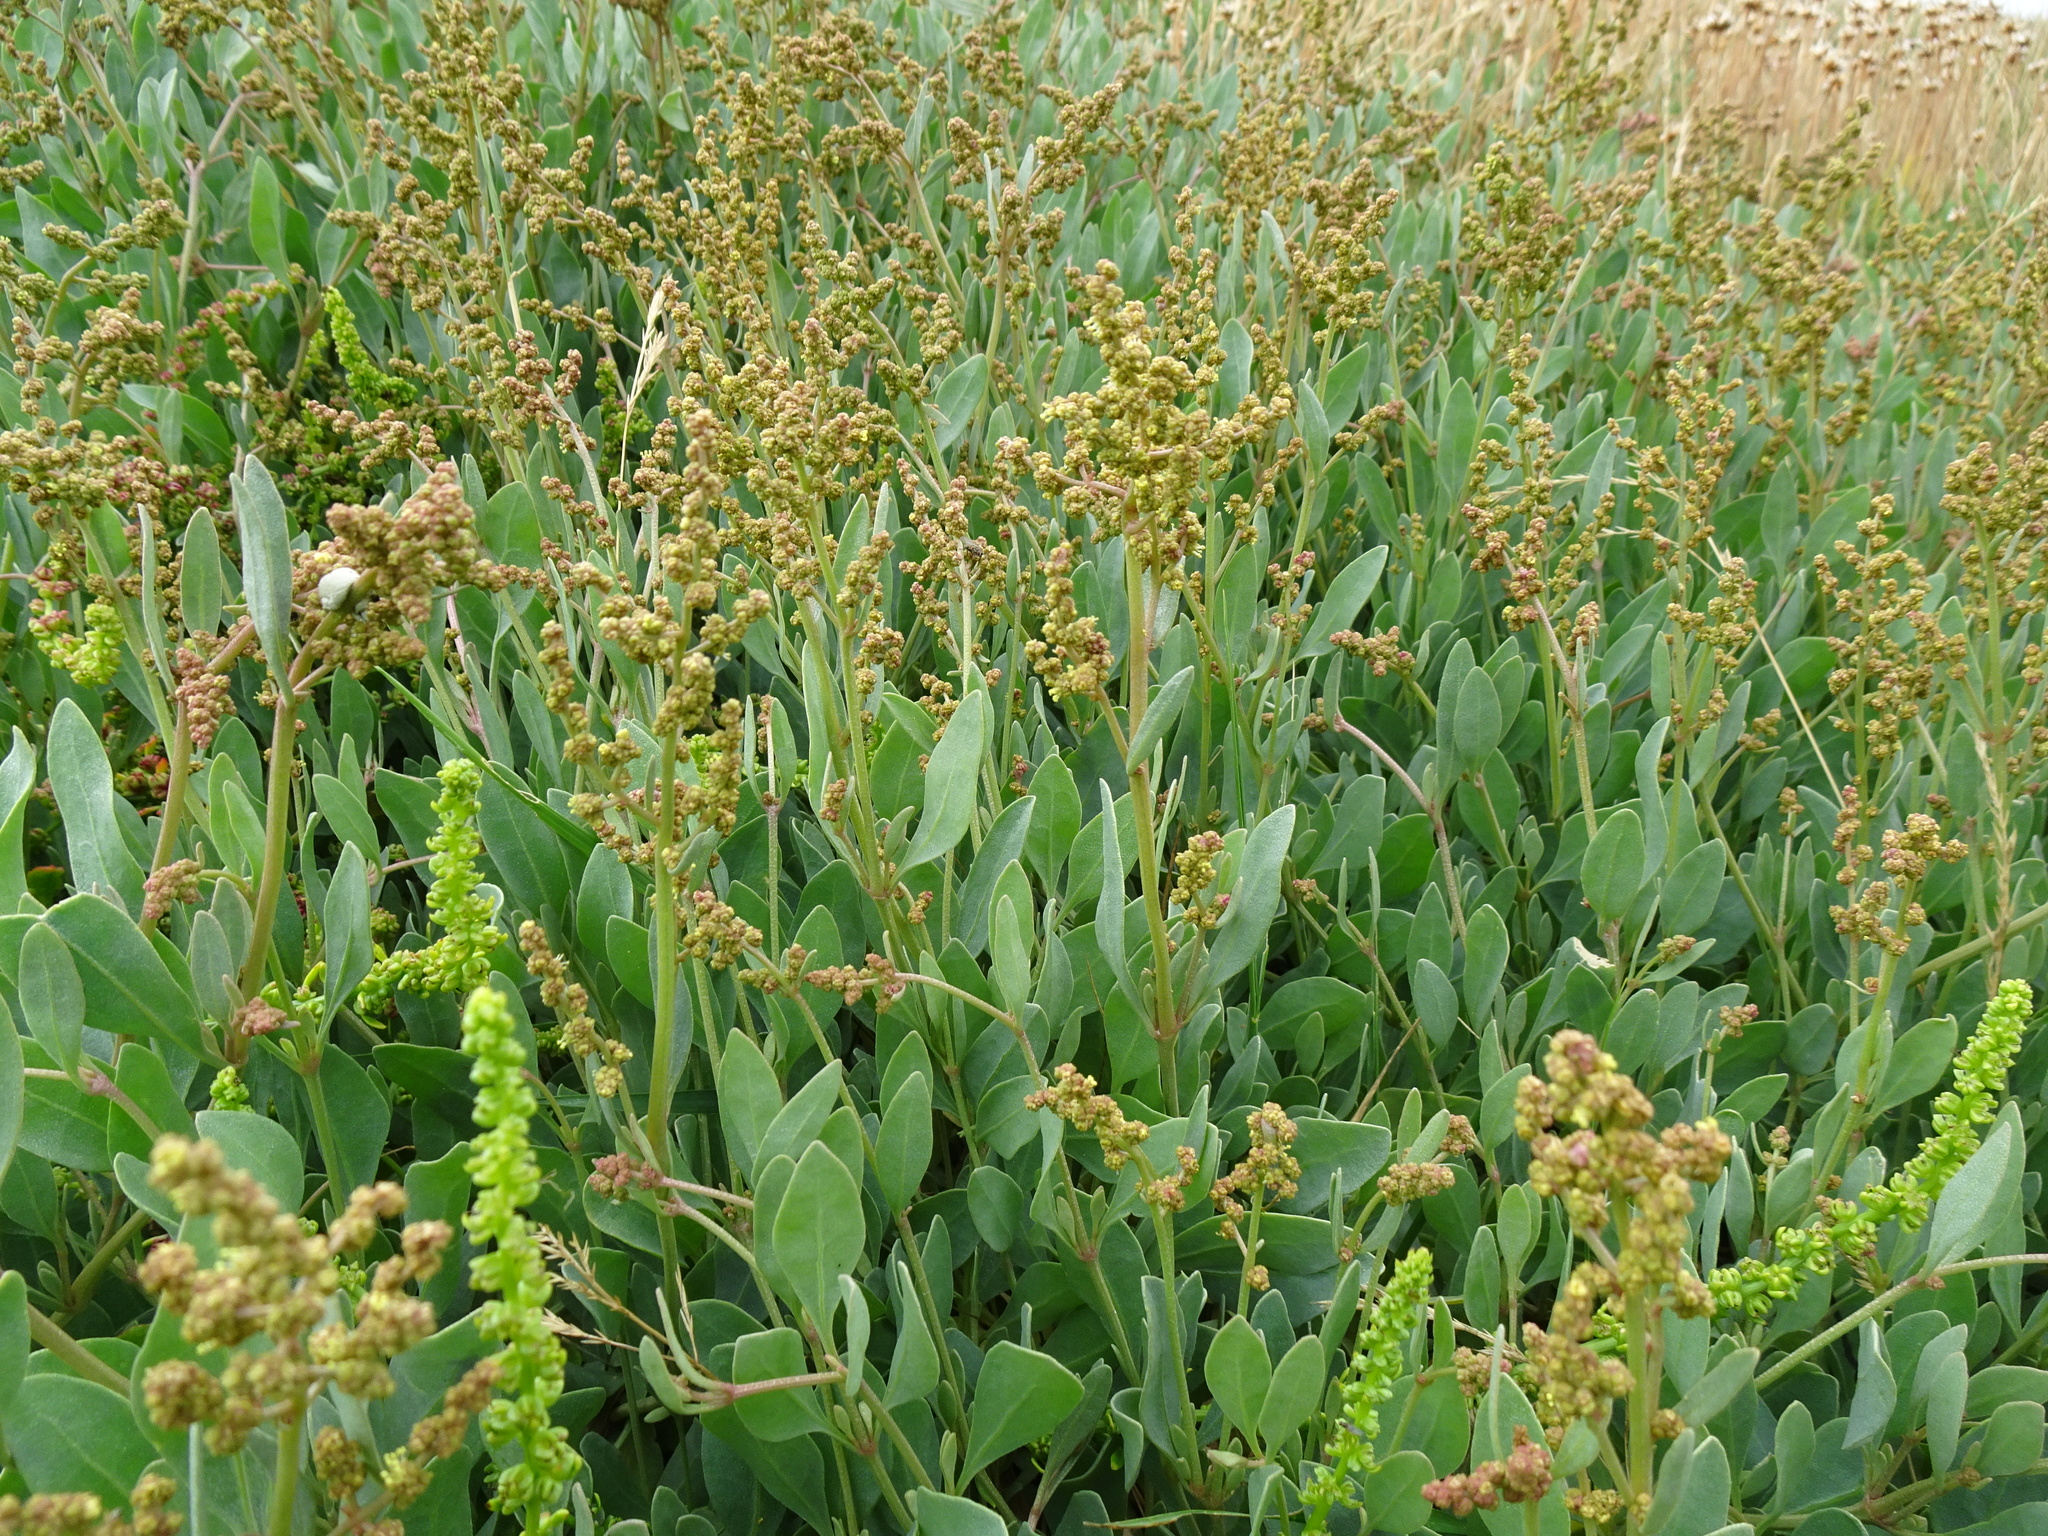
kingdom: Plantae
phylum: Tracheophyta
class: Magnoliopsida
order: Caryophyllales
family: Amaranthaceae
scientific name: Amaranthaceae
